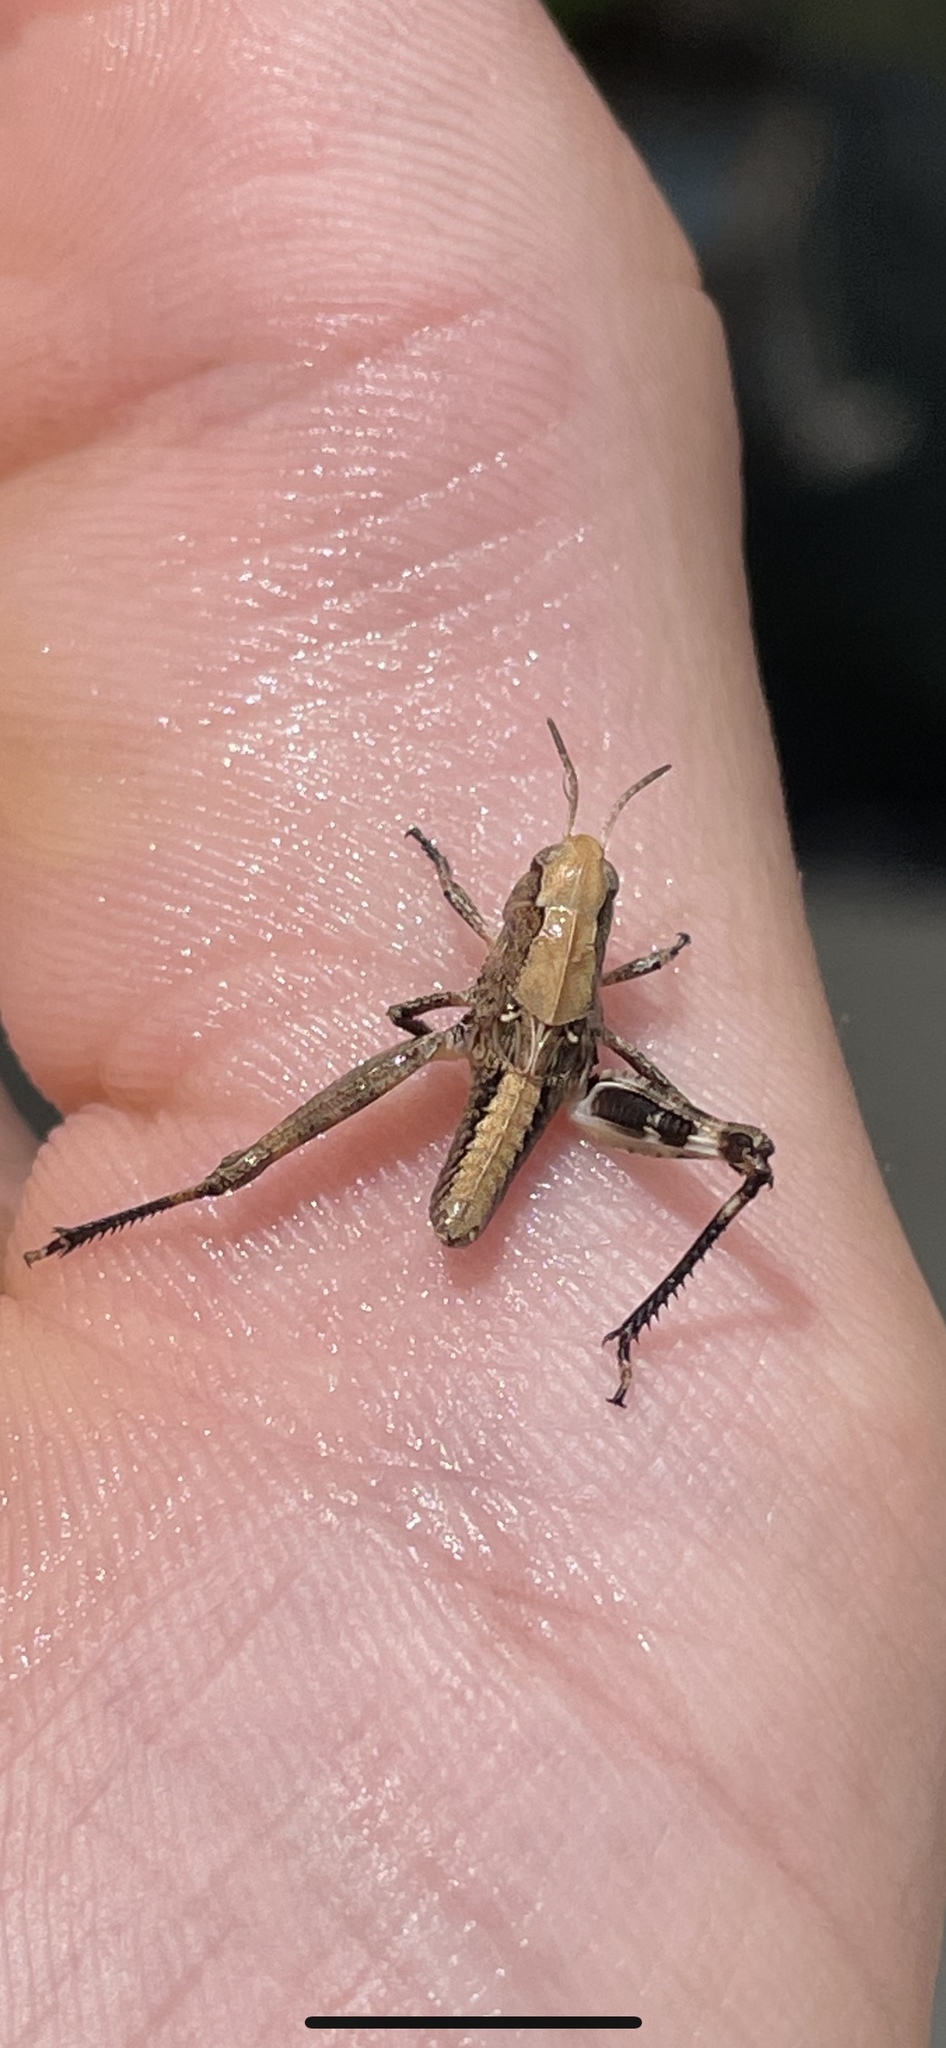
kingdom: Animalia
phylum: Arthropoda
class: Insecta
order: Orthoptera
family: Acrididae
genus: Camnula
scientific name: Camnula pellucida
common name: Clear-winged grasshopper
